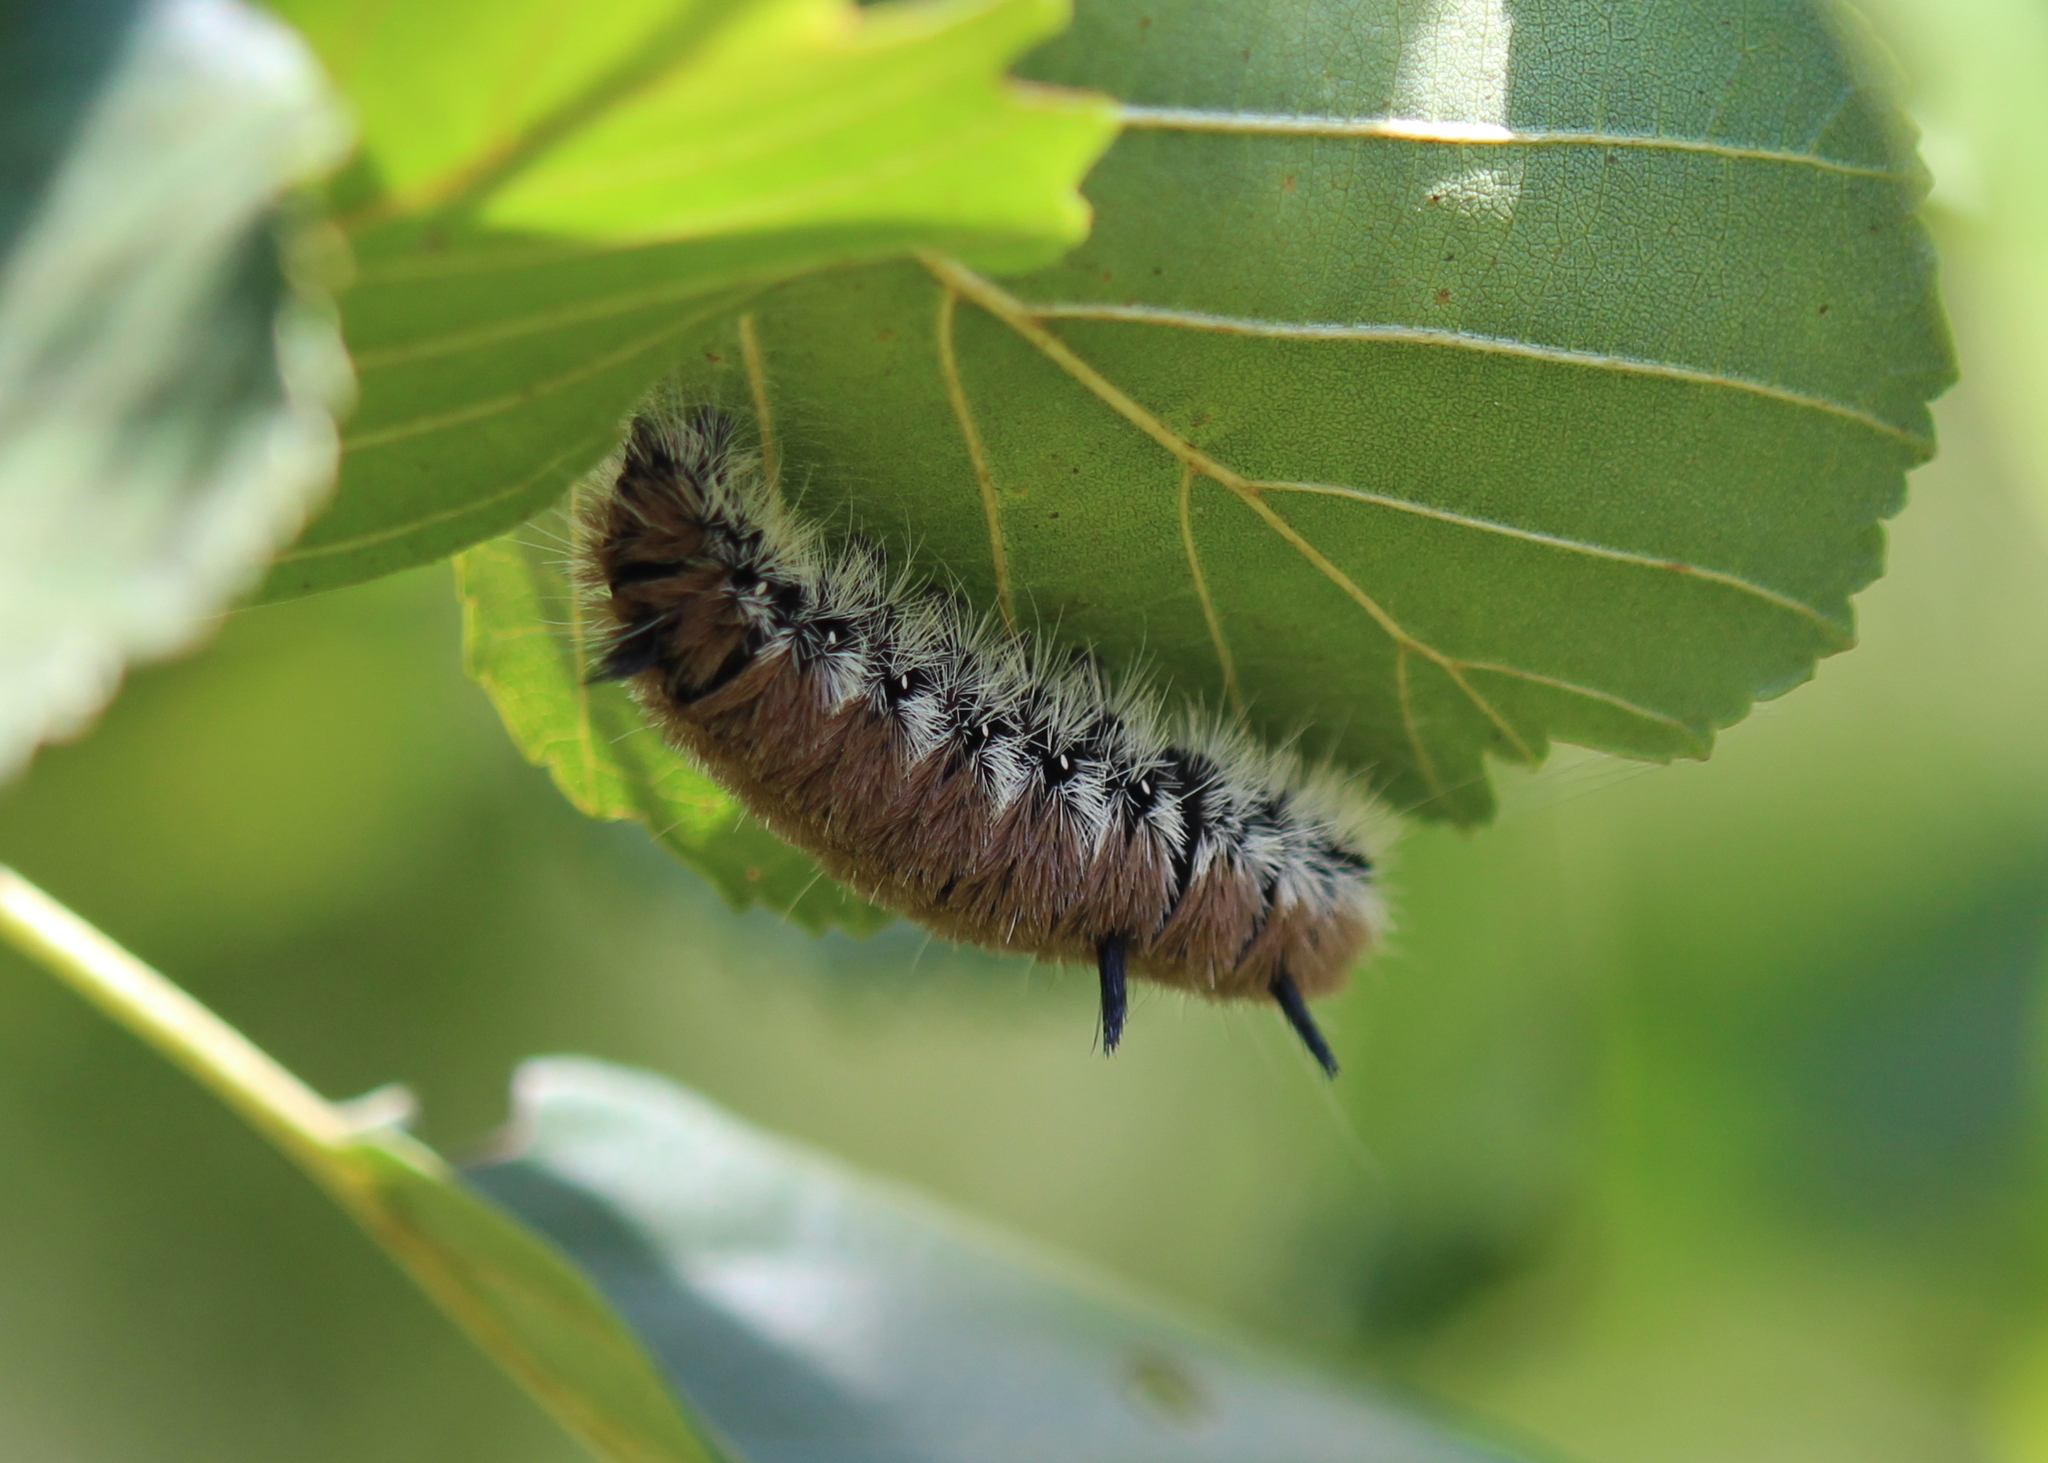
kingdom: Animalia
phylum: Arthropoda
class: Insecta
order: Lepidoptera
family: Noctuidae
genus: Acronicta
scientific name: Acronicta insita
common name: Large gray dagger
